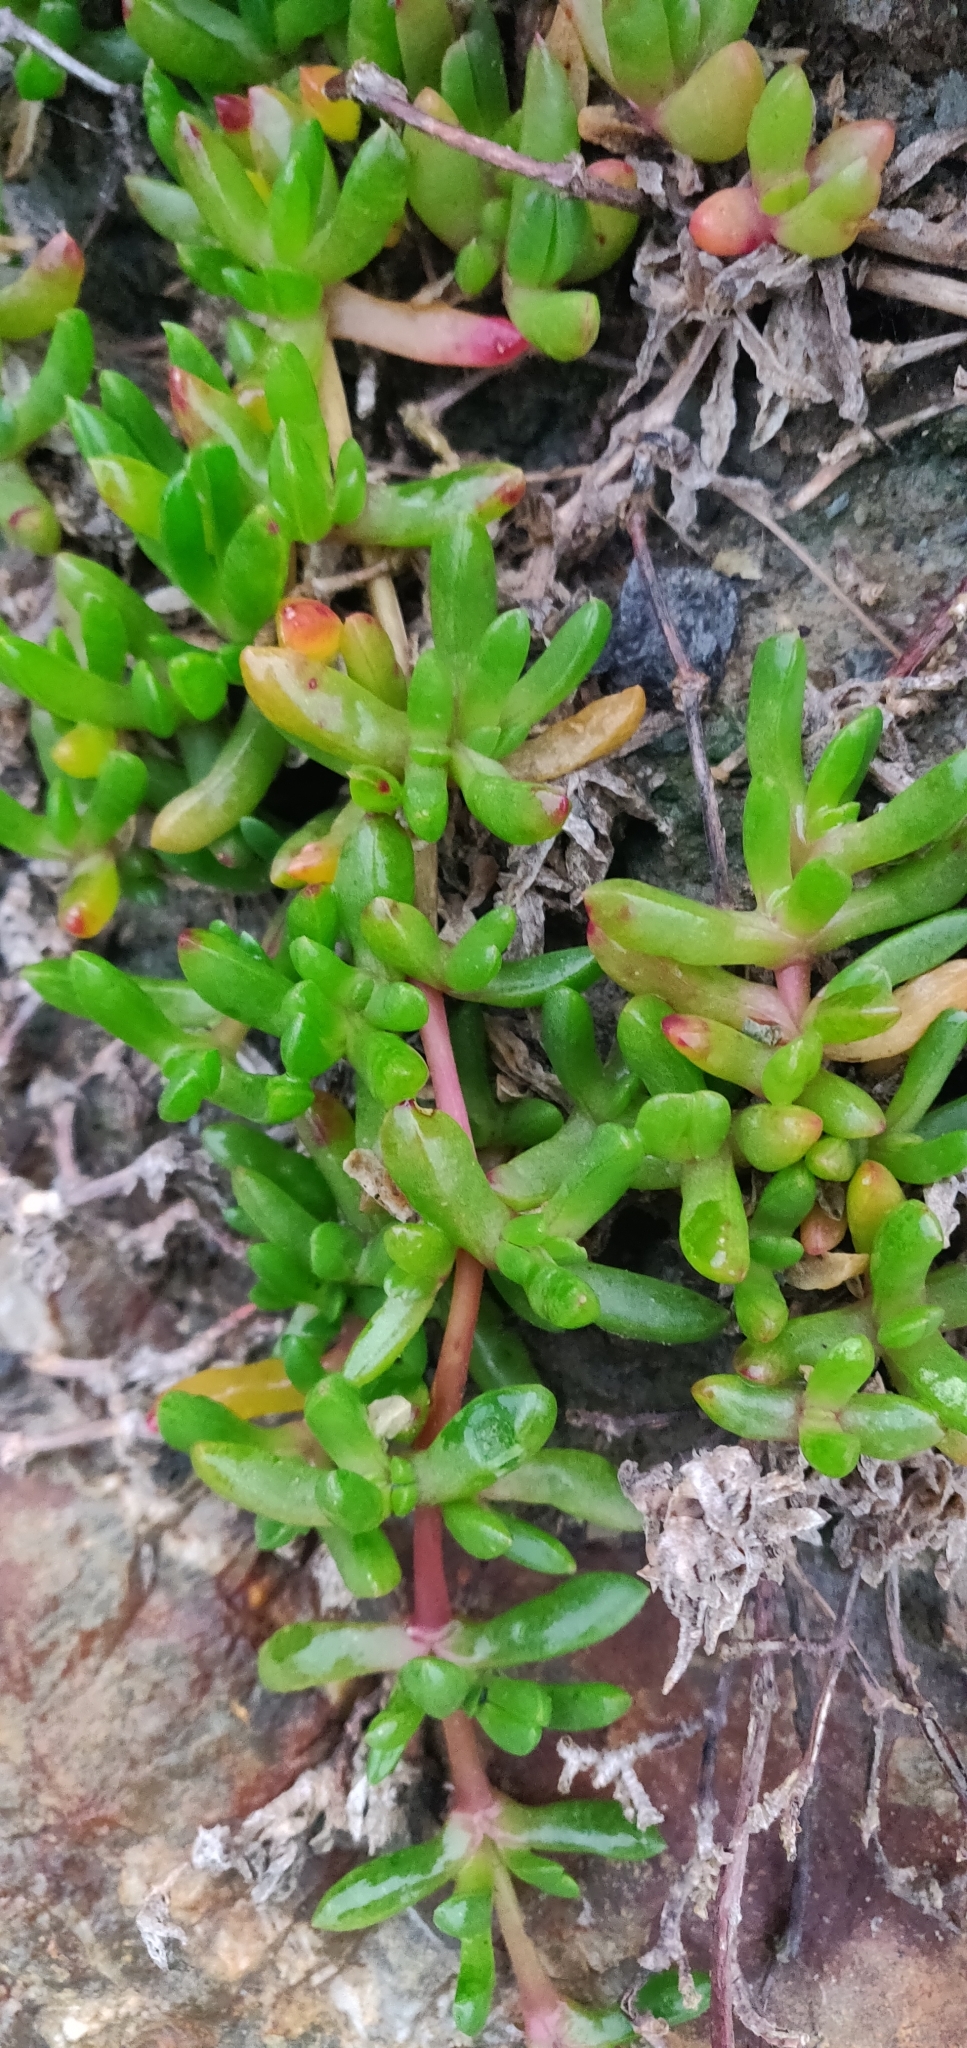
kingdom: Plantae
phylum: Tracheophyta
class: Magnoliopsida
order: Caryophyllales
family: Aizoaceae
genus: Disphyma
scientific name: Disphyma australe
